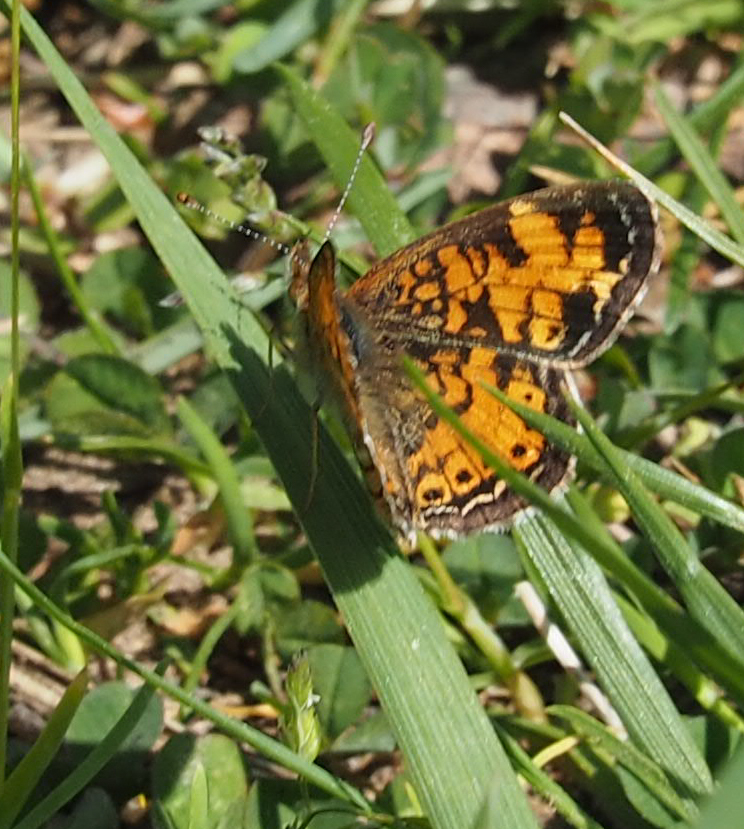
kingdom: Animalia
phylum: Arthropoda
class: Insecta
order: Lepidoptera
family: Nymphalidae
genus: Phyciodes
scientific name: Phyciodes tharos
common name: Pearl crescent
